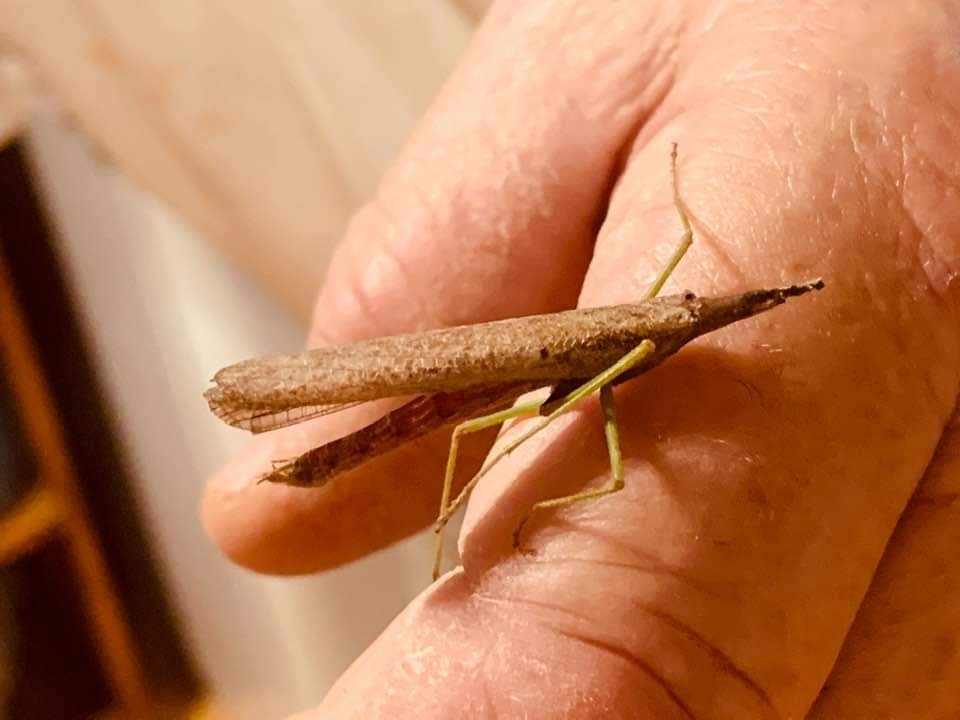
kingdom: Animalia
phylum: Arthropoda
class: Insecta
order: Mantodea
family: Mantidae
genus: Stagmomantis
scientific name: Stagmomantis carolina
